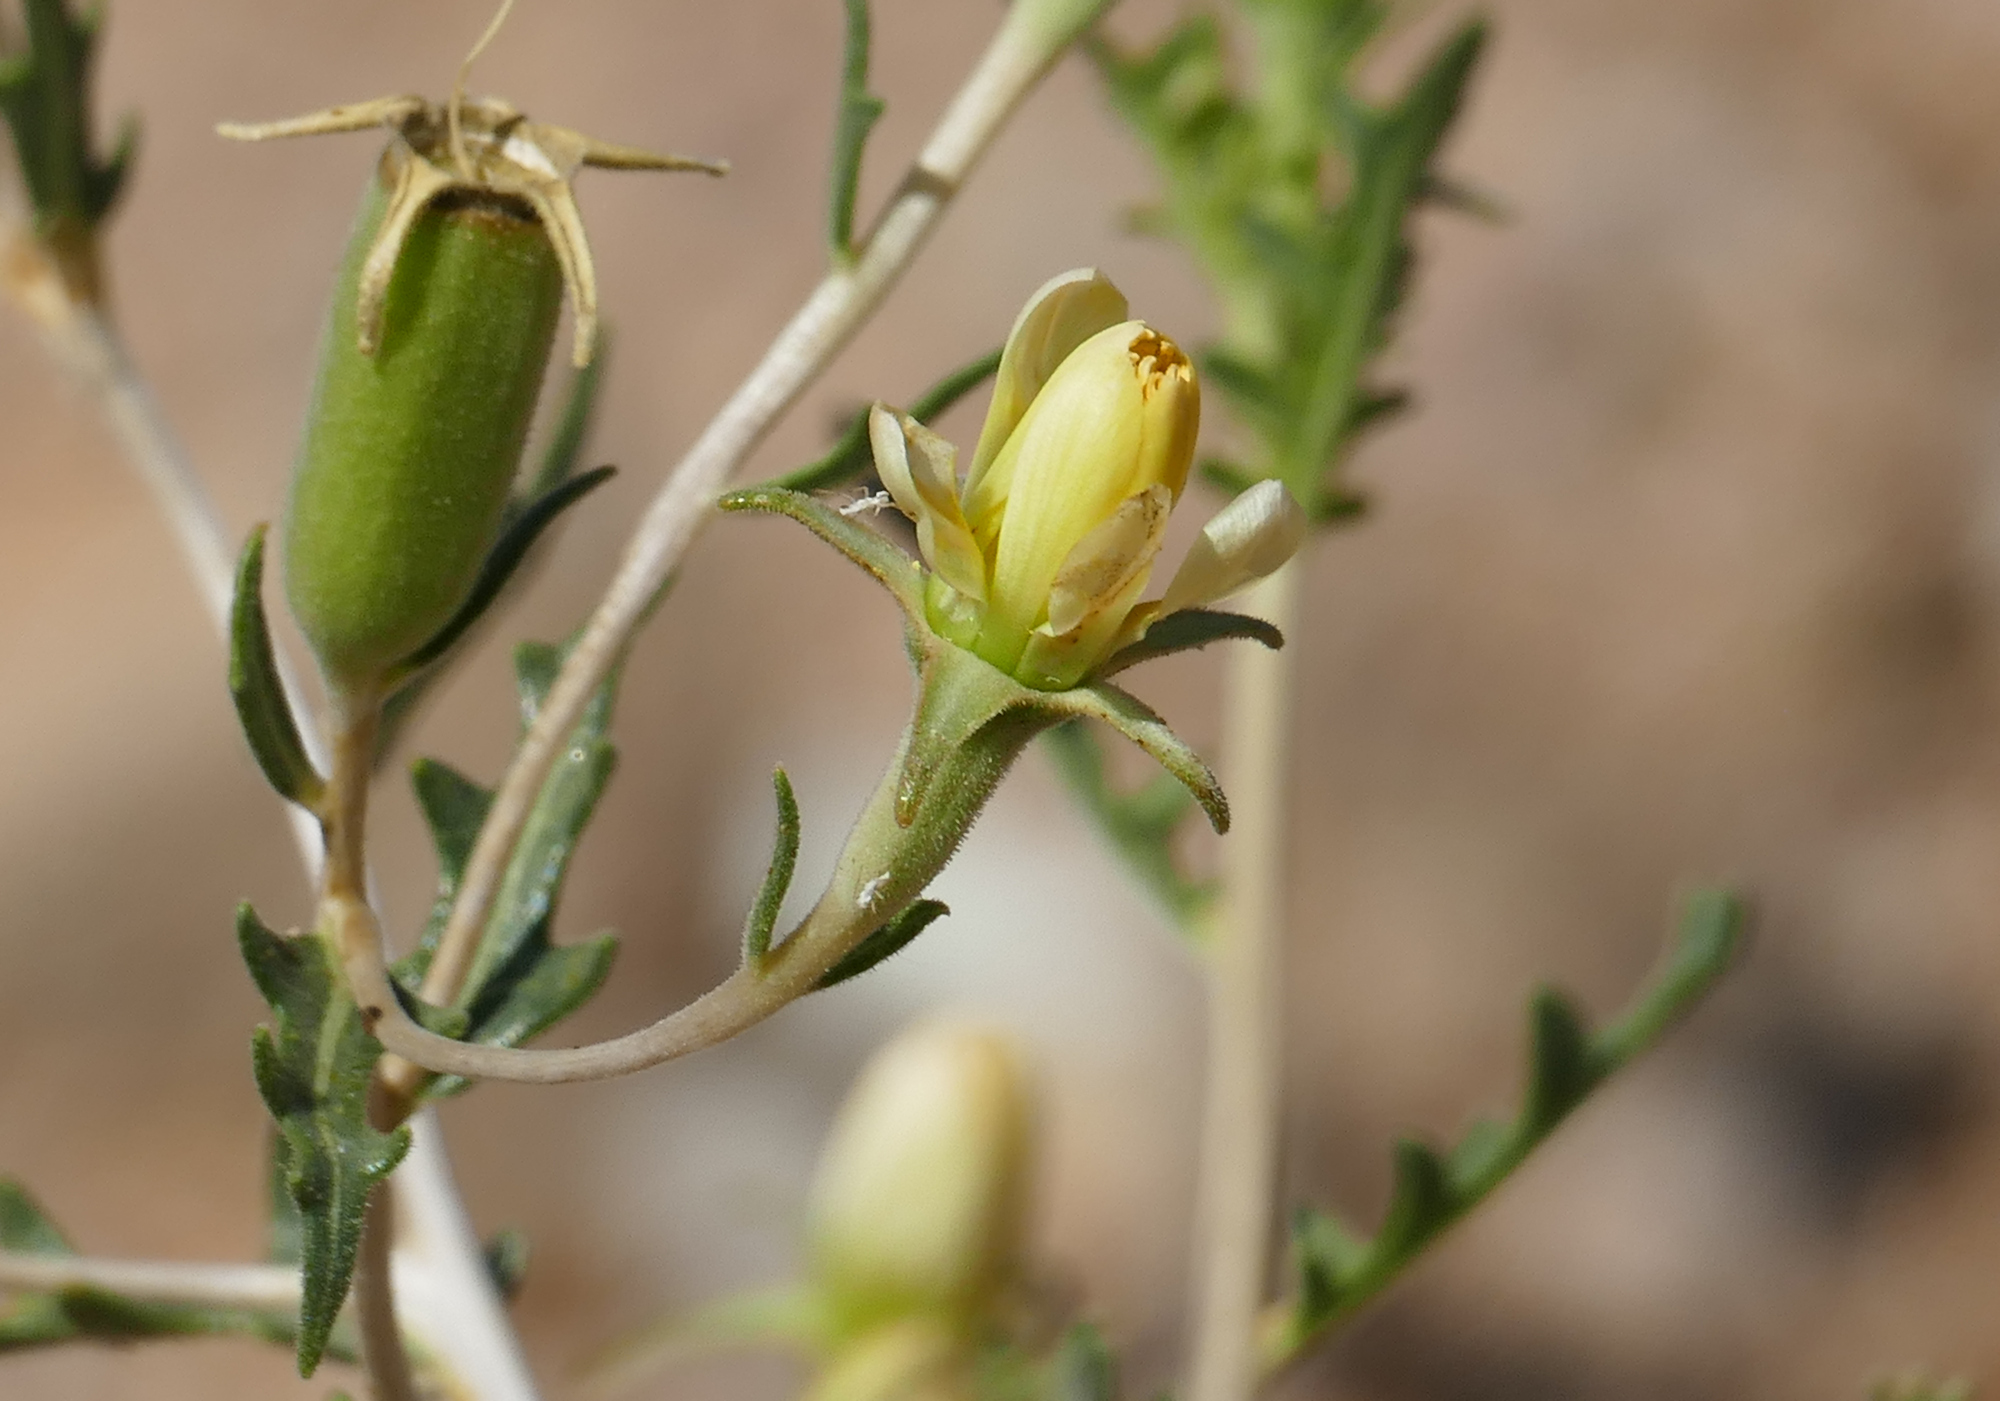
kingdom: Plantae
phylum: Tracheophyta
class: Magnoliopsida
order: Cornales
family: Loasaceae
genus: Mentzelia
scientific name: Mentzelia procera
